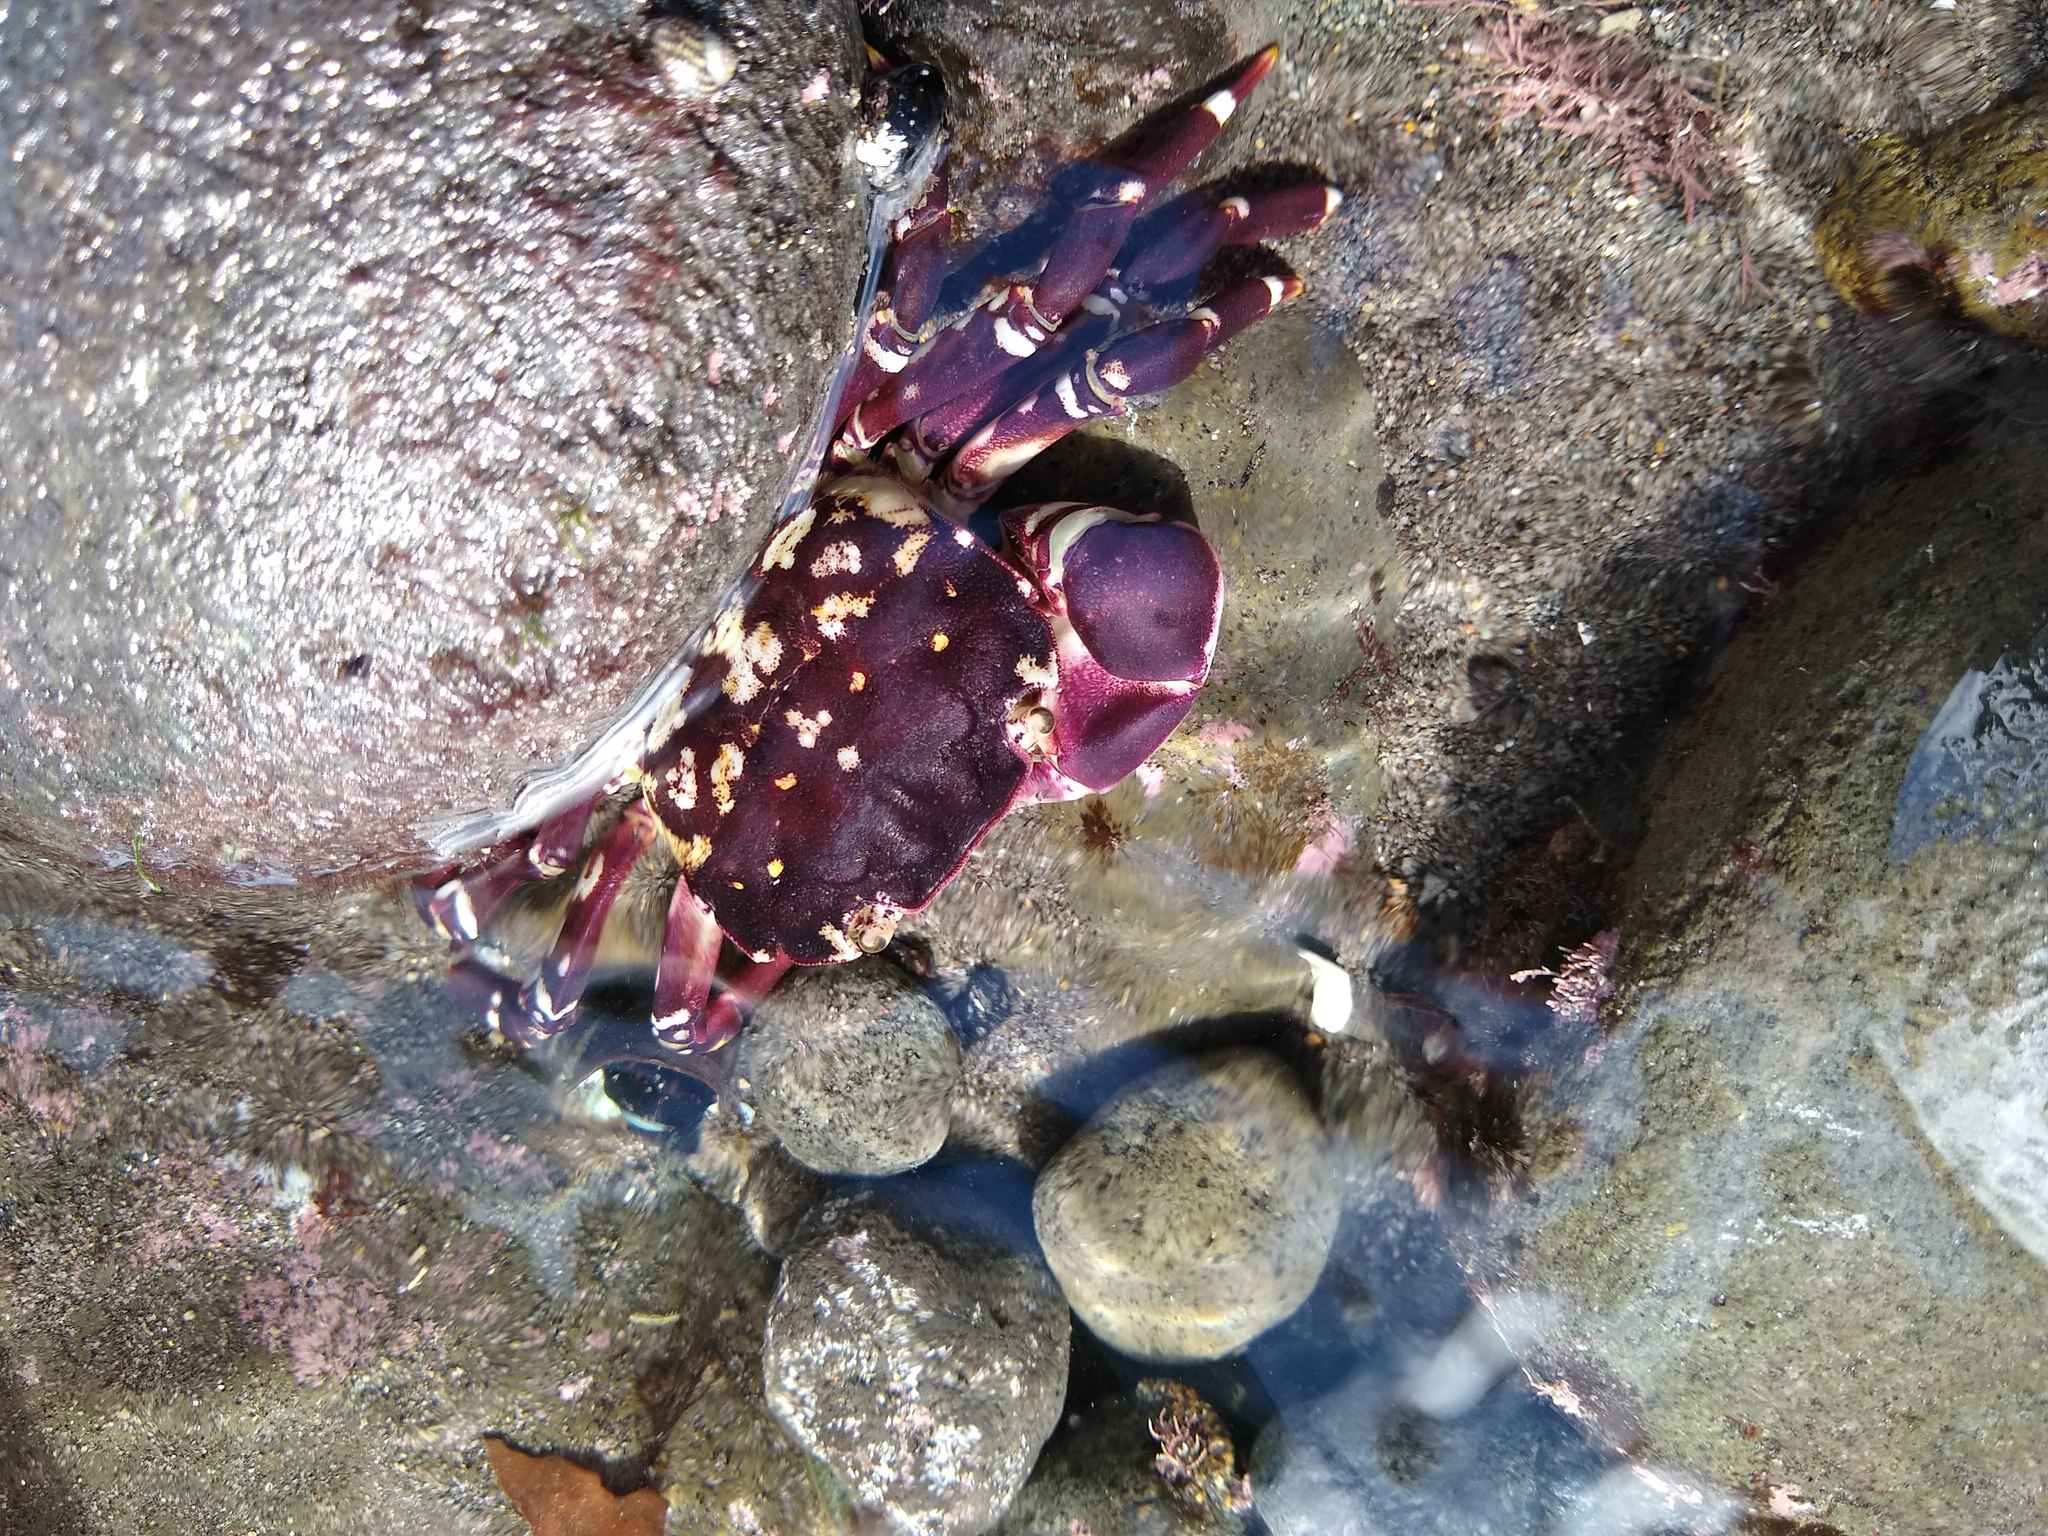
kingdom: Animalia
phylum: Arthropoda
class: Malacostraca
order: Decapoda
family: Varunidae
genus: Hemigrapsus
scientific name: Hemigrapsus sexdentatus
